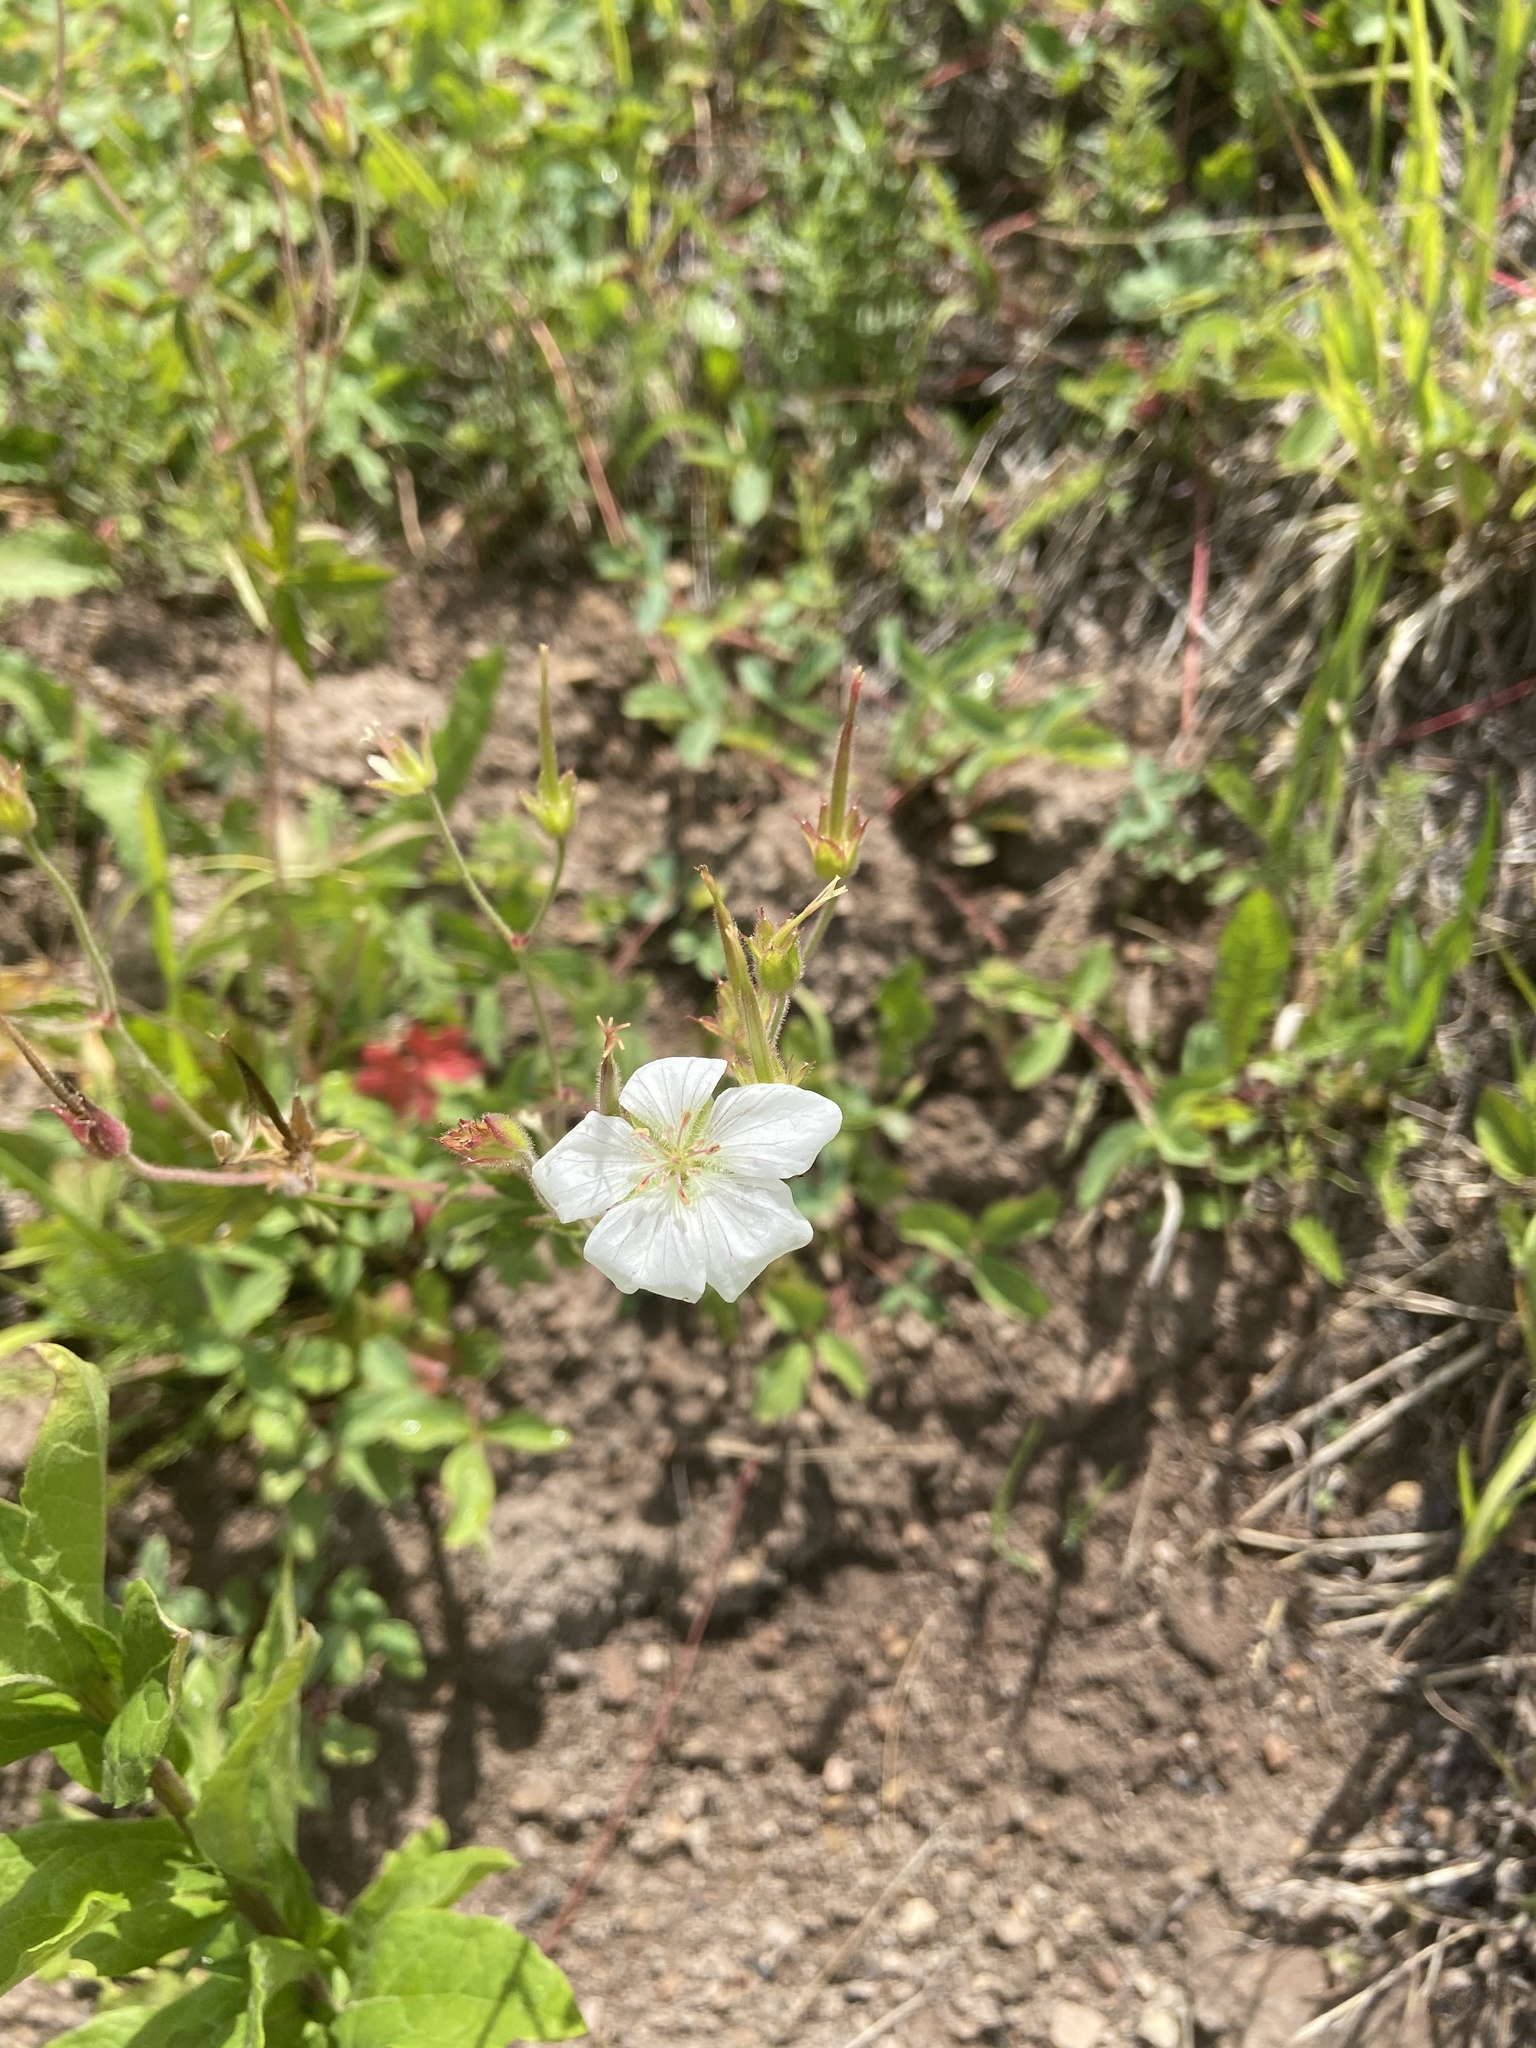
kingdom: Plantae
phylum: Tracheophyta
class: Magnoliopsida
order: Geraniales
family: Geraniaceae
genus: Geranium
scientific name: Geranium richardsonii
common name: Richardson's crane's-bill
